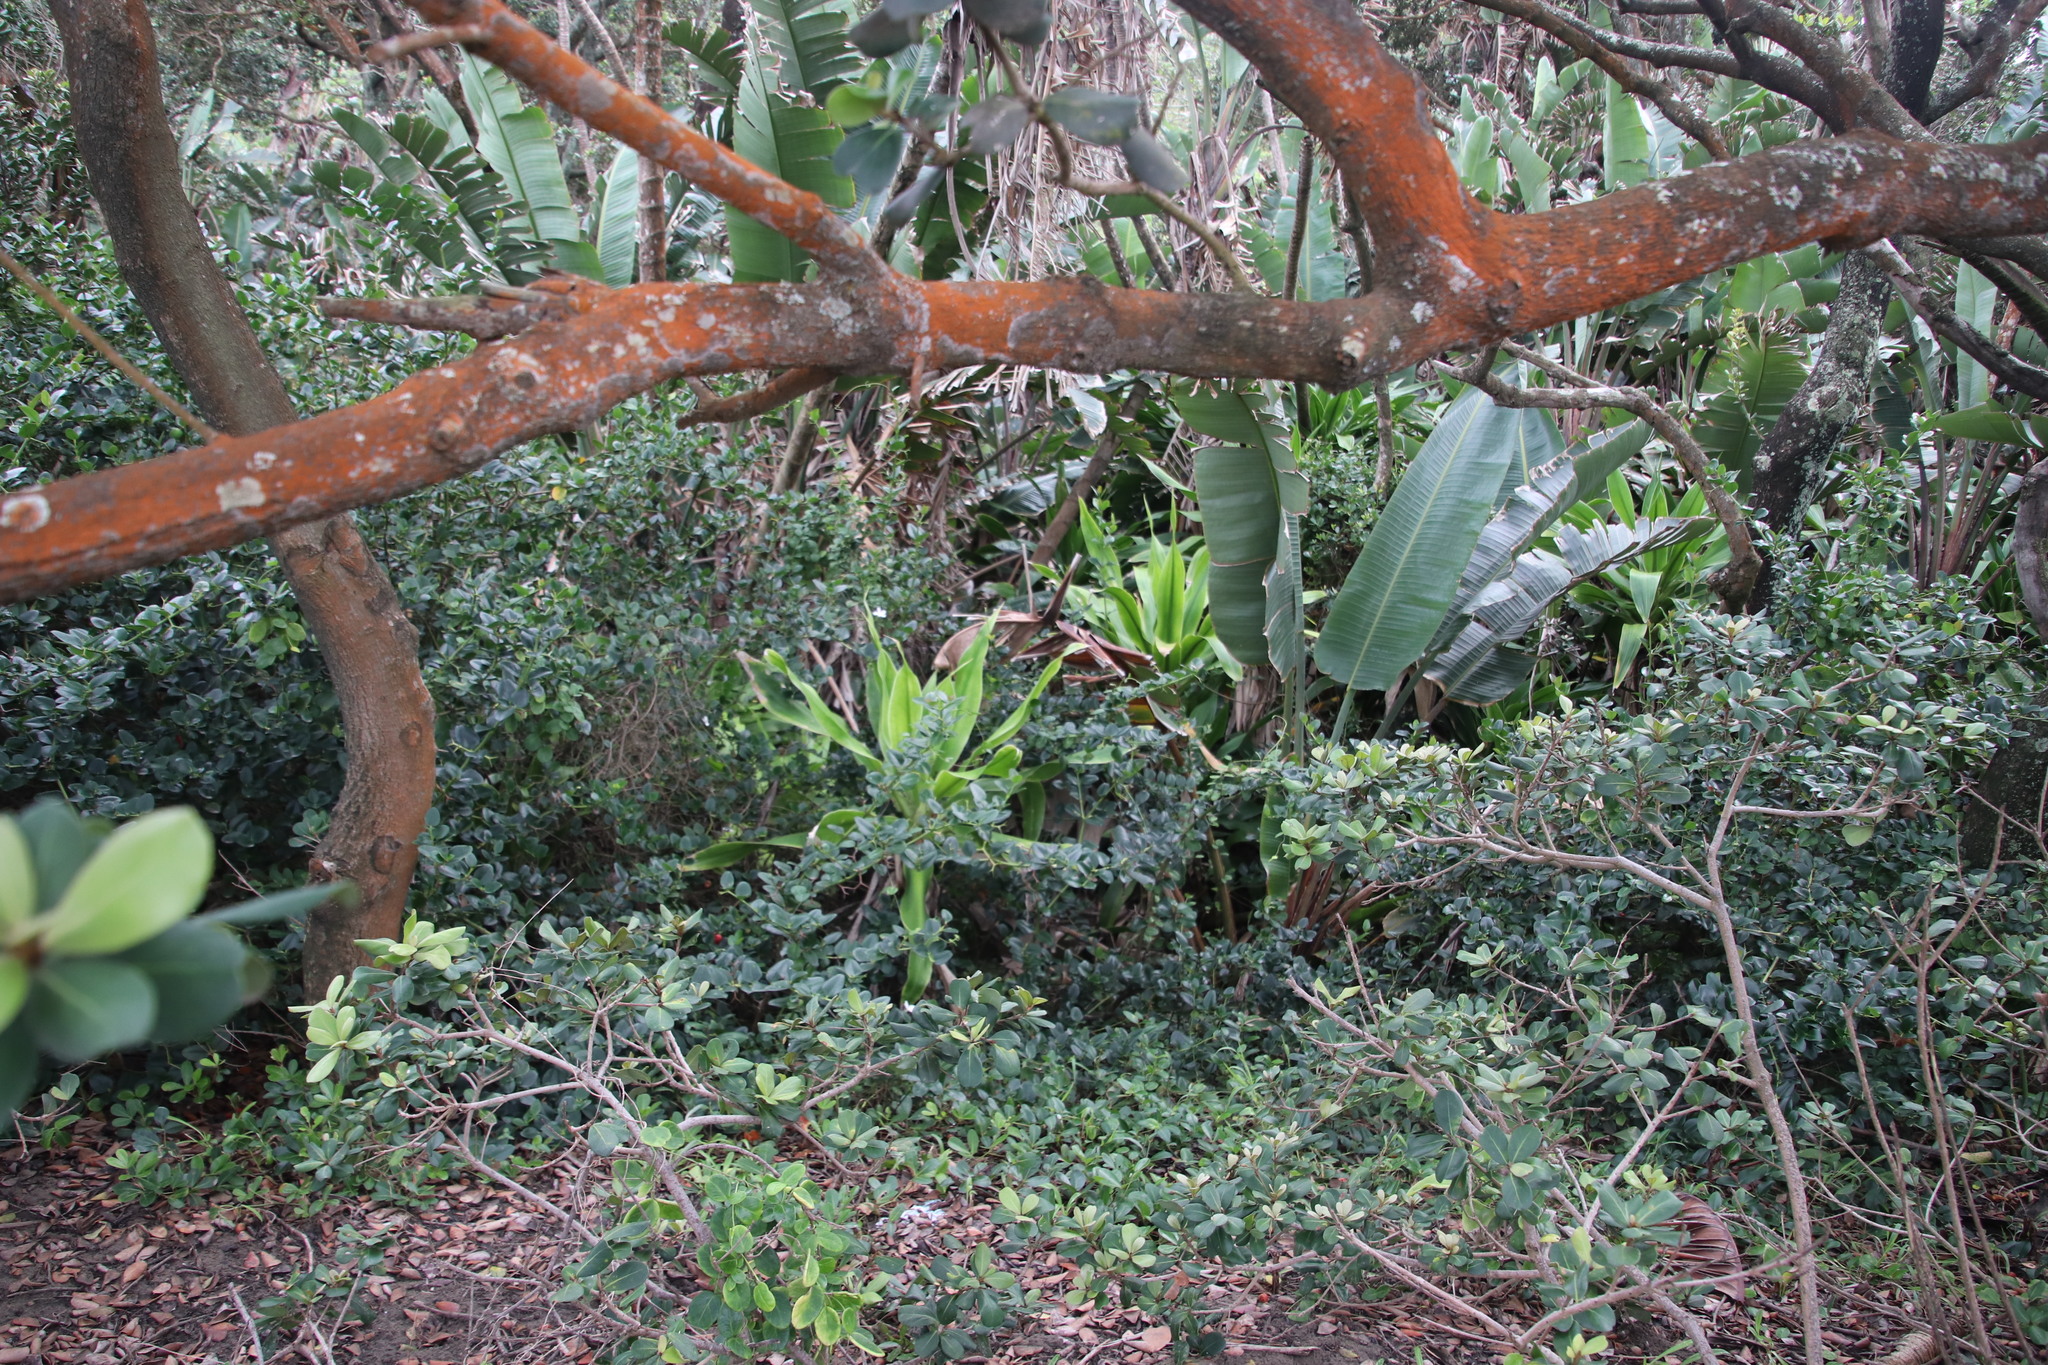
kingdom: Plantae
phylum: Tracheophyta
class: Liliopsida
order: Asparagales
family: Asparagaceae
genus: Dracaena
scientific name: Dracaena aletriformis
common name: Large-leaved dragon tree
